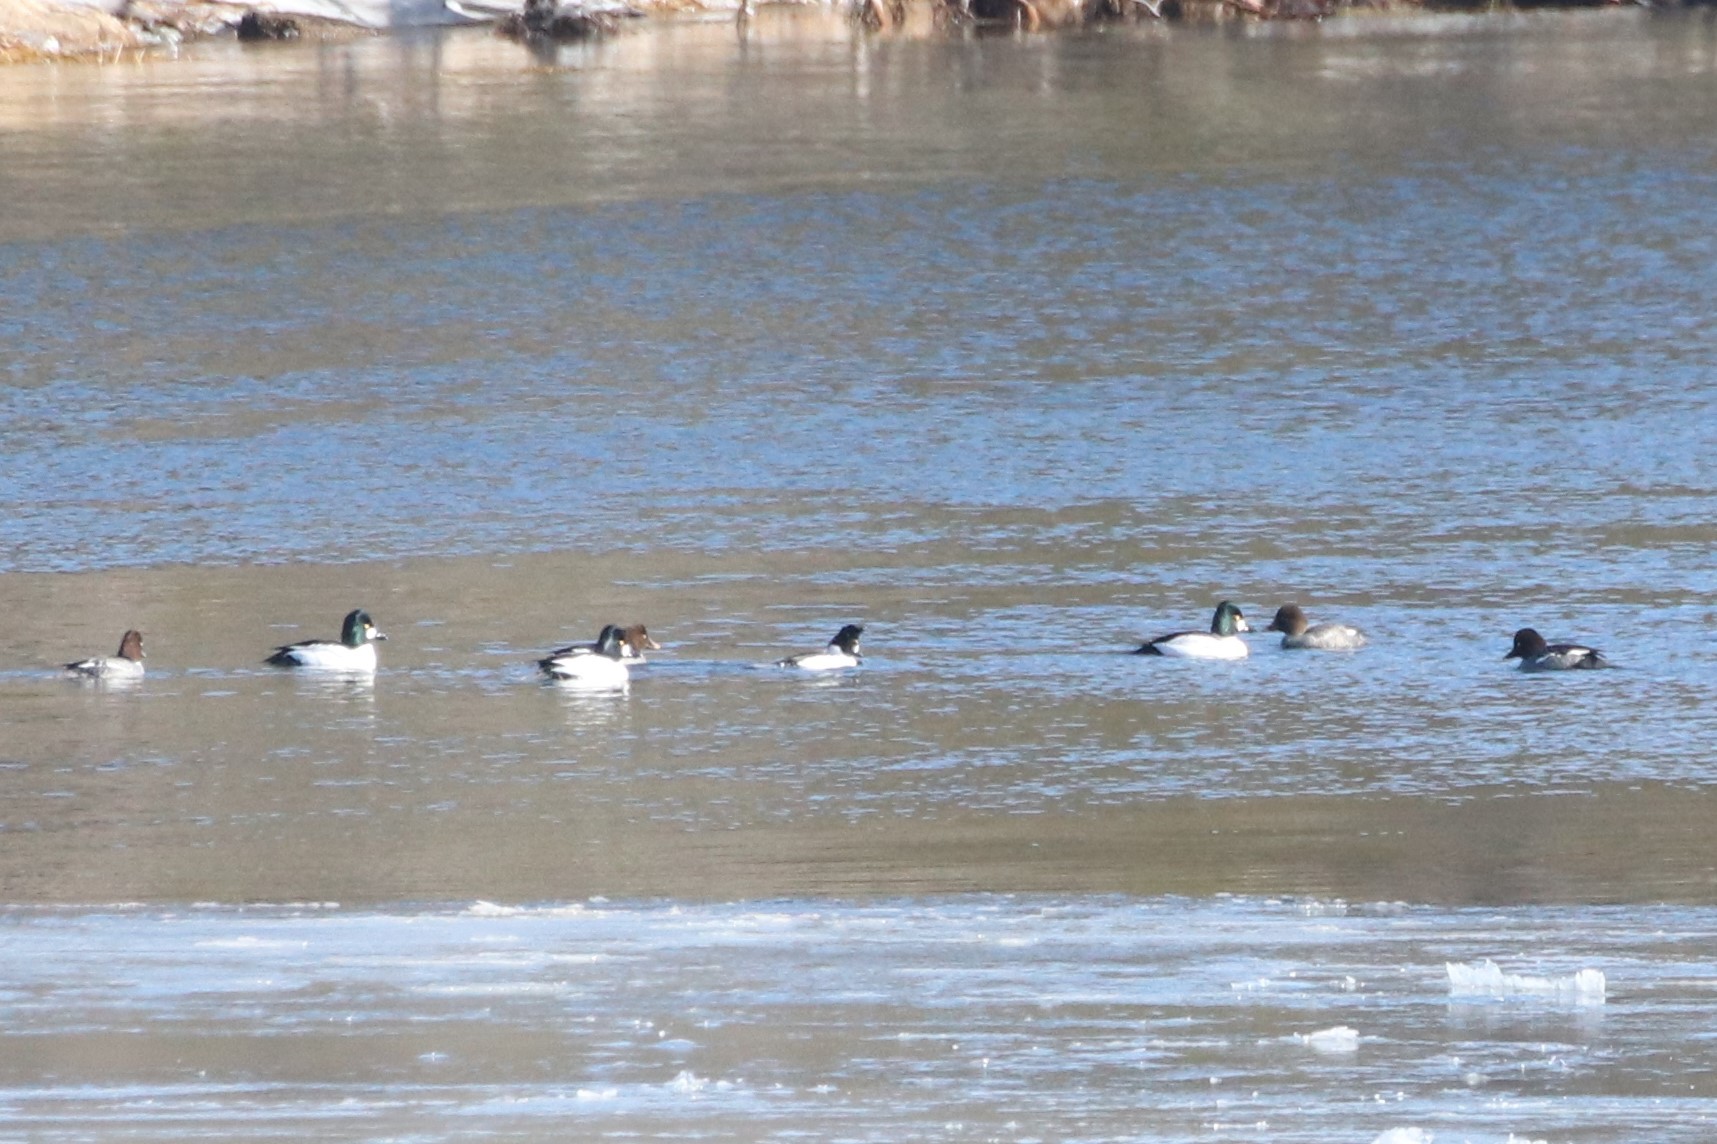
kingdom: Animalia
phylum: Chordata
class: Aves
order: Anseriformes
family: Anatidae
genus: Bucephala
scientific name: Bucephala clangula
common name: Common goldeneye
